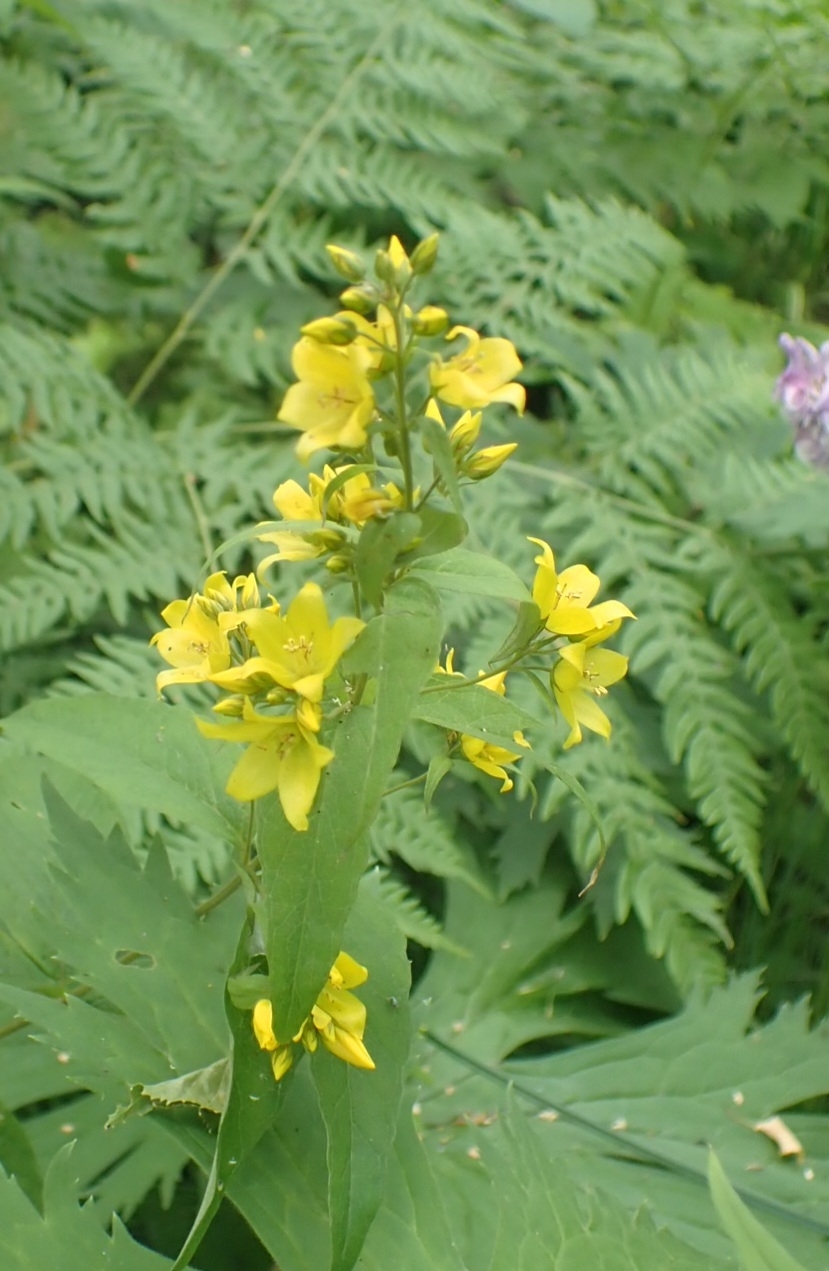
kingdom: Plantae
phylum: Tracheophyta
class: Magnoliopsida
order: Ericales
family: Primulaceae
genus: Lysimachia
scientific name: Lysimachia vulgaris
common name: Yellow loosestrife
